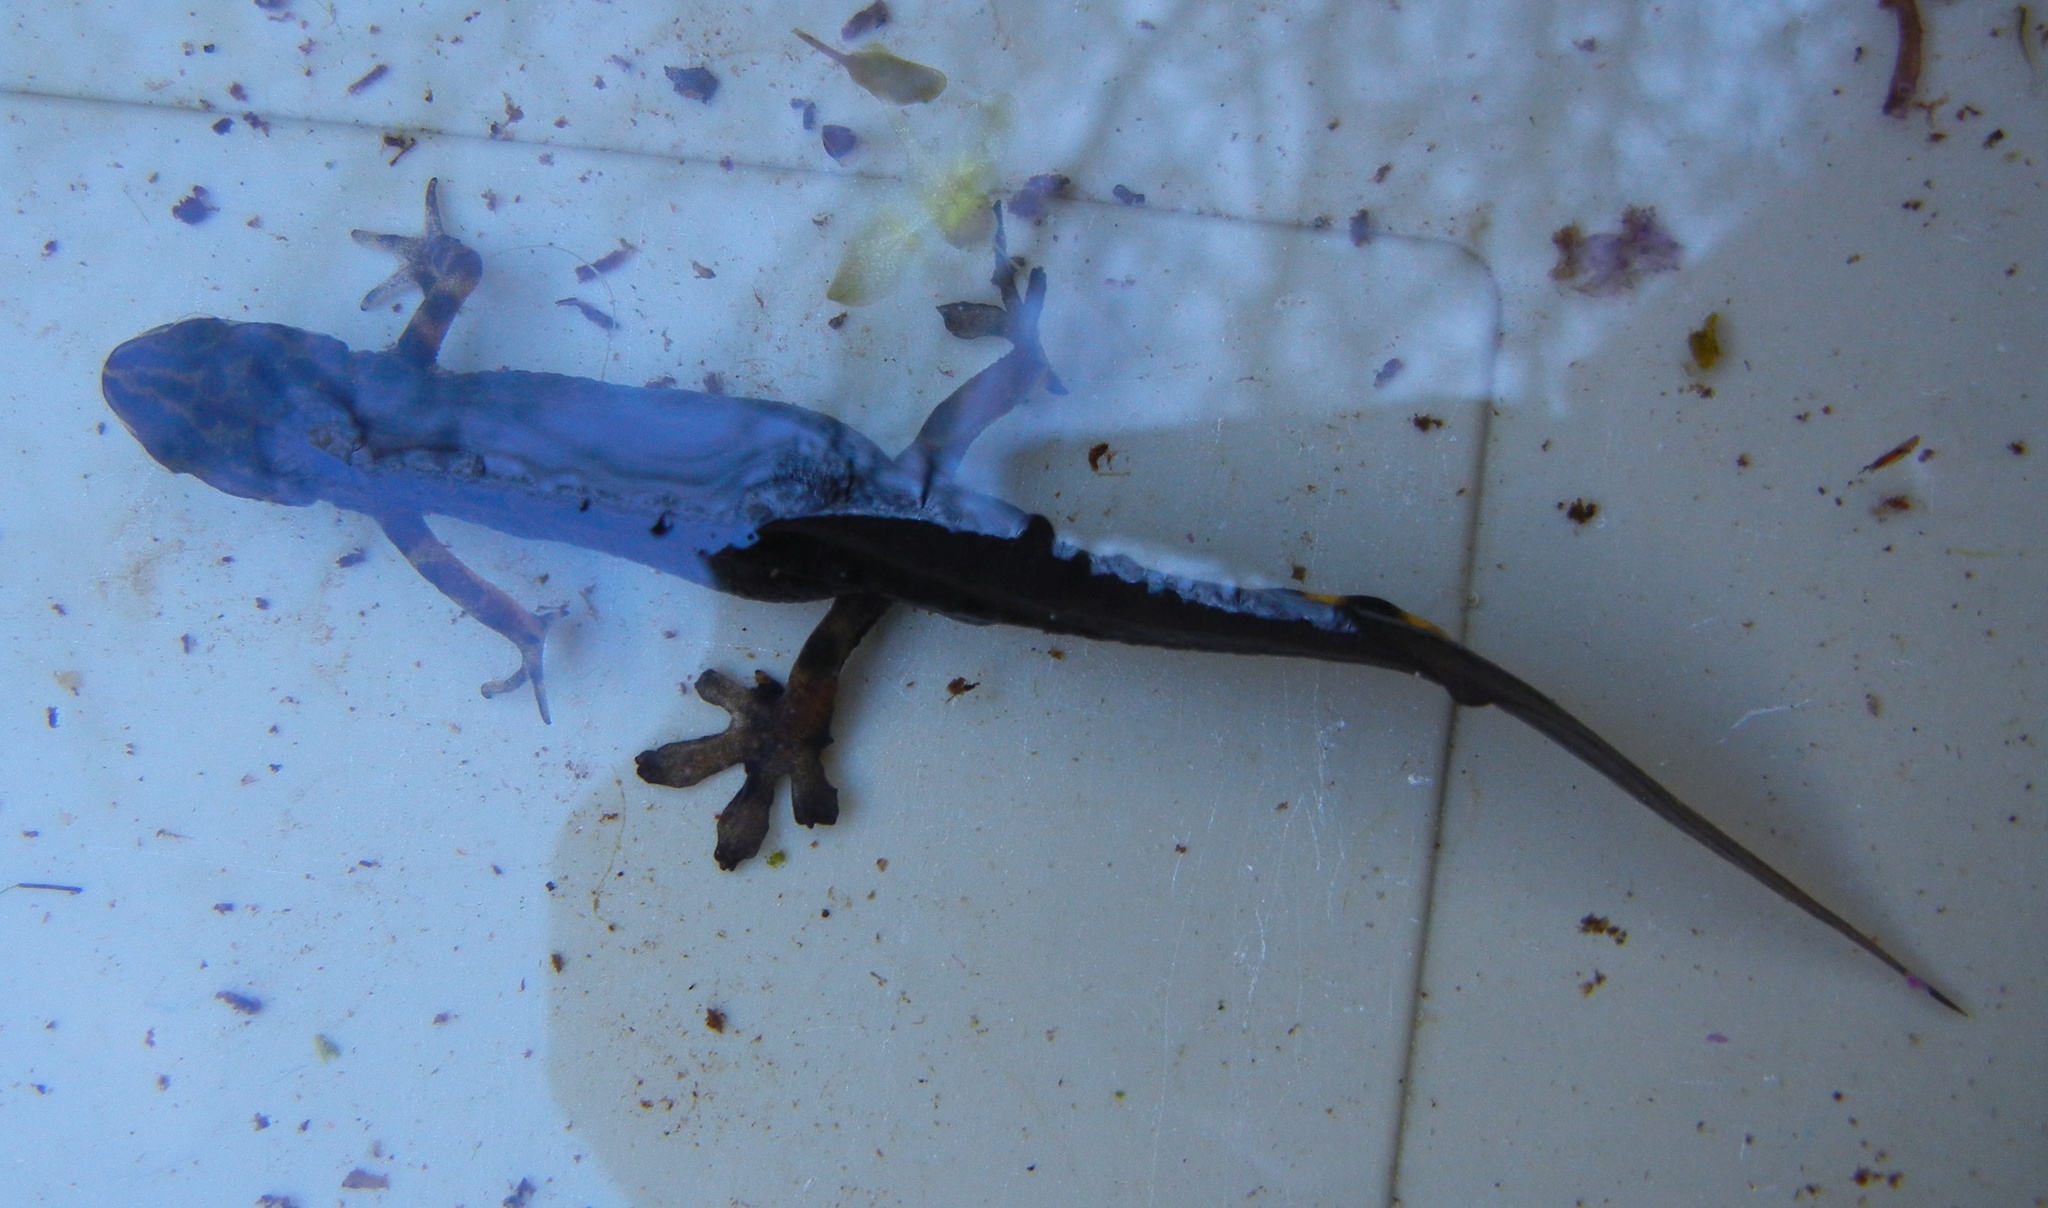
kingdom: Animalia
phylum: Chordata
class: Amphibia
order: Caudata
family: Salamandridae
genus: Lissotriton
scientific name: Lissotriton vulgaris
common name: Smooth newt
